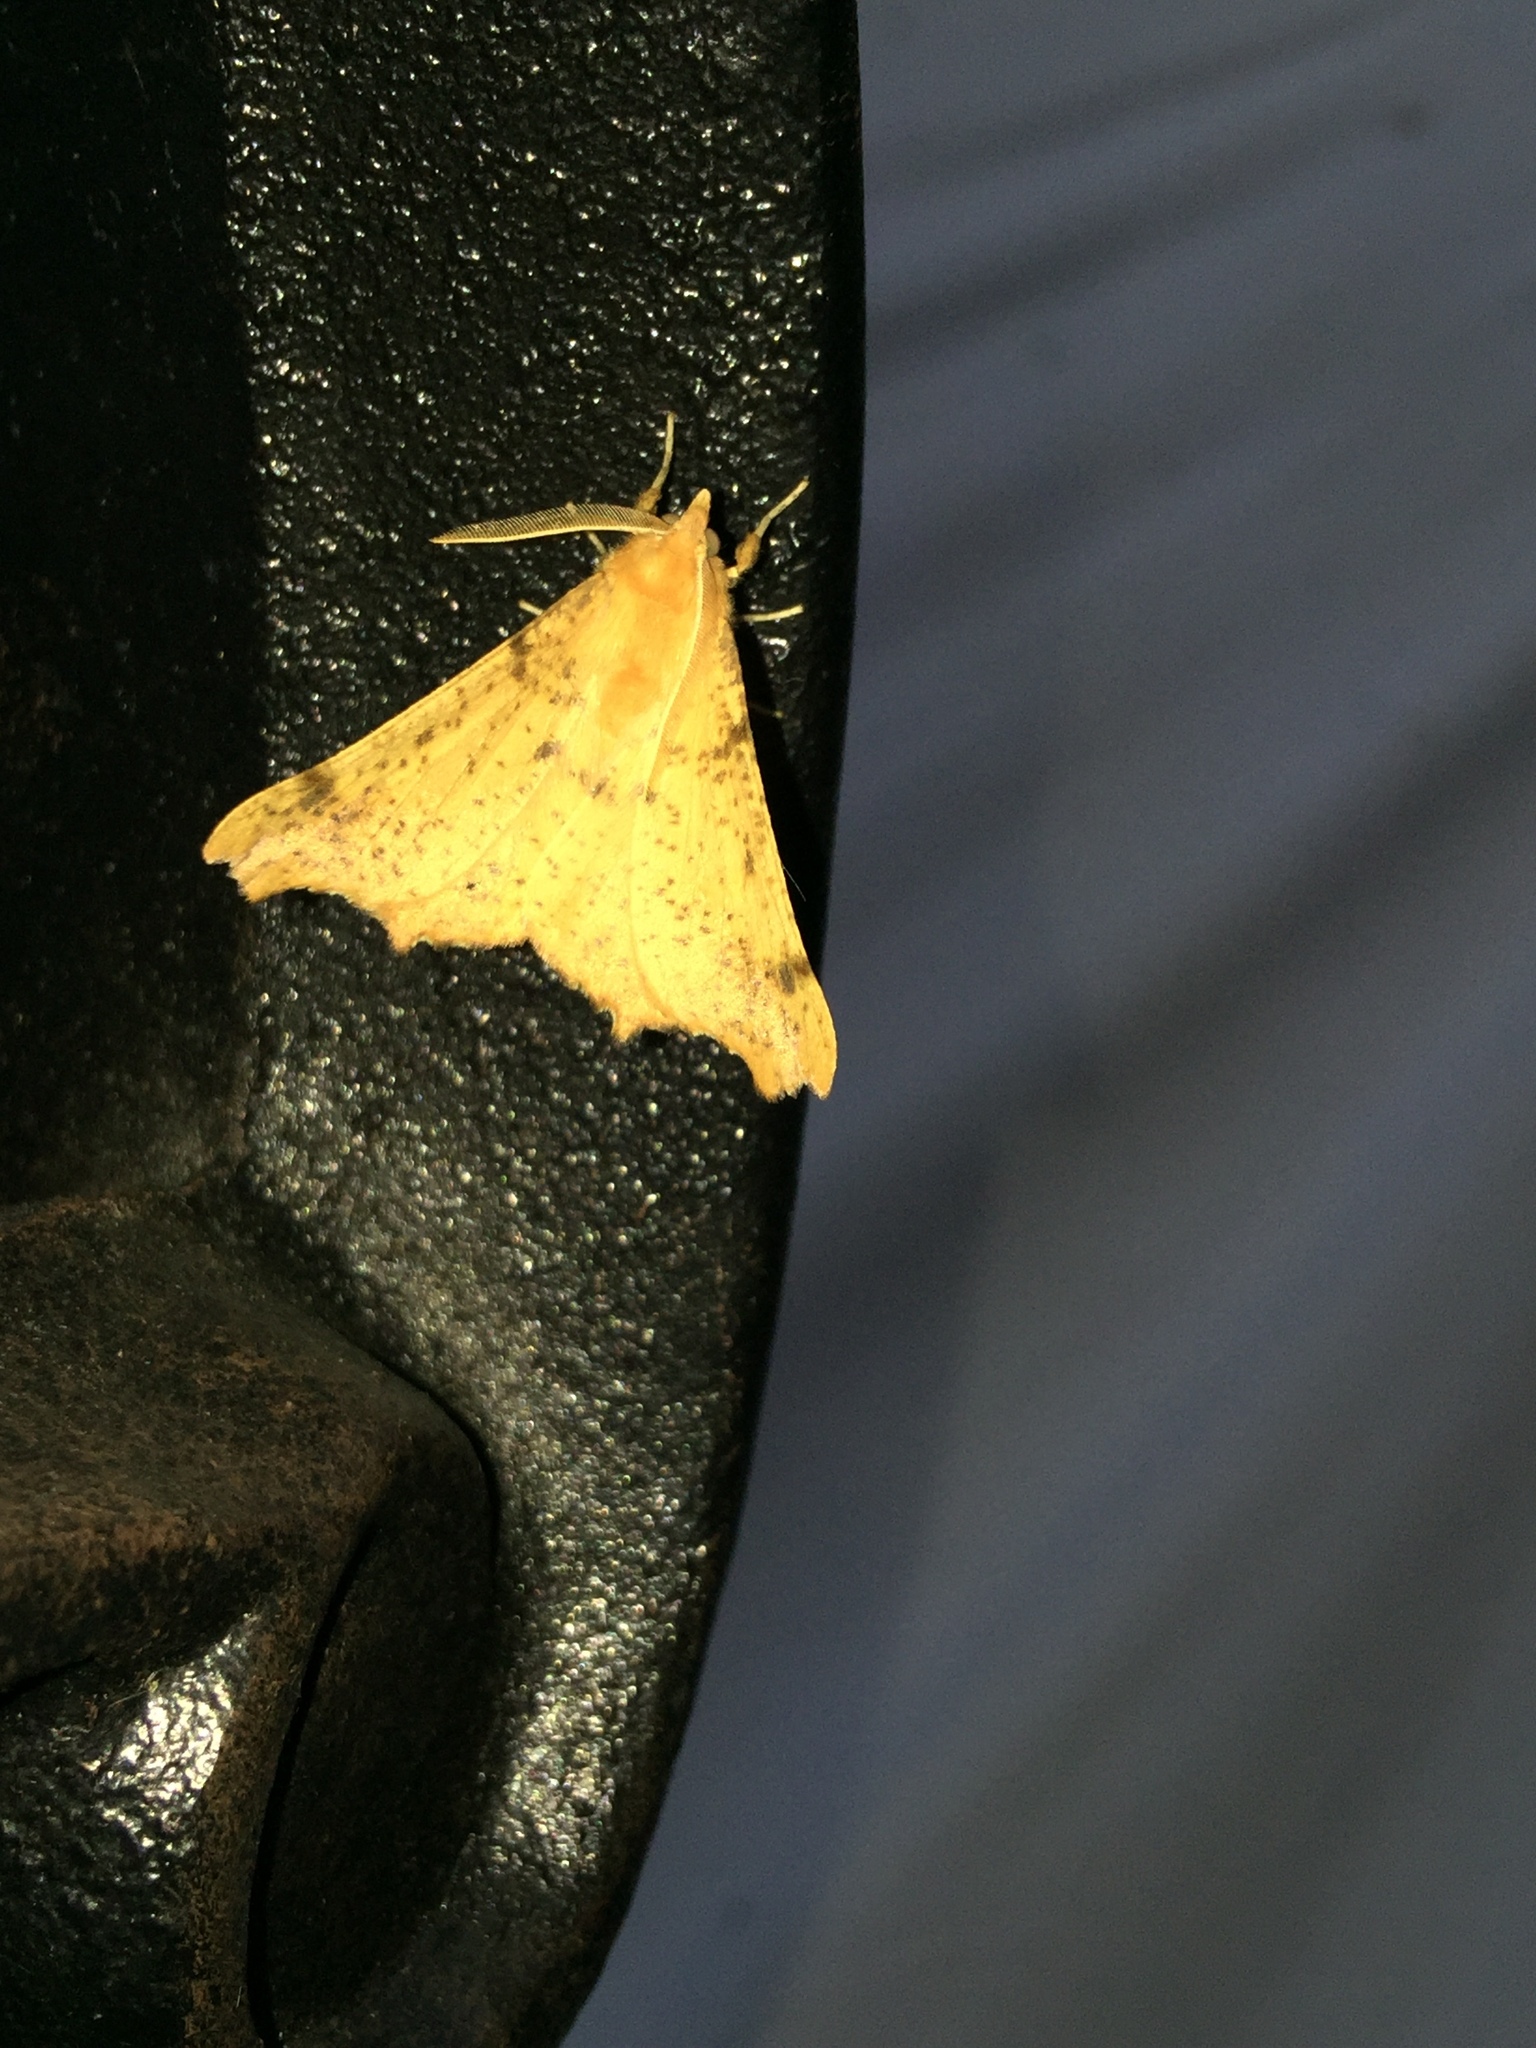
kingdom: Animalia
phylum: Arthropoda
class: Insecta
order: Lepidoptera
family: Geometridae
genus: Ennomos
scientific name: Ennomos magnaria
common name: Maple spanworm
